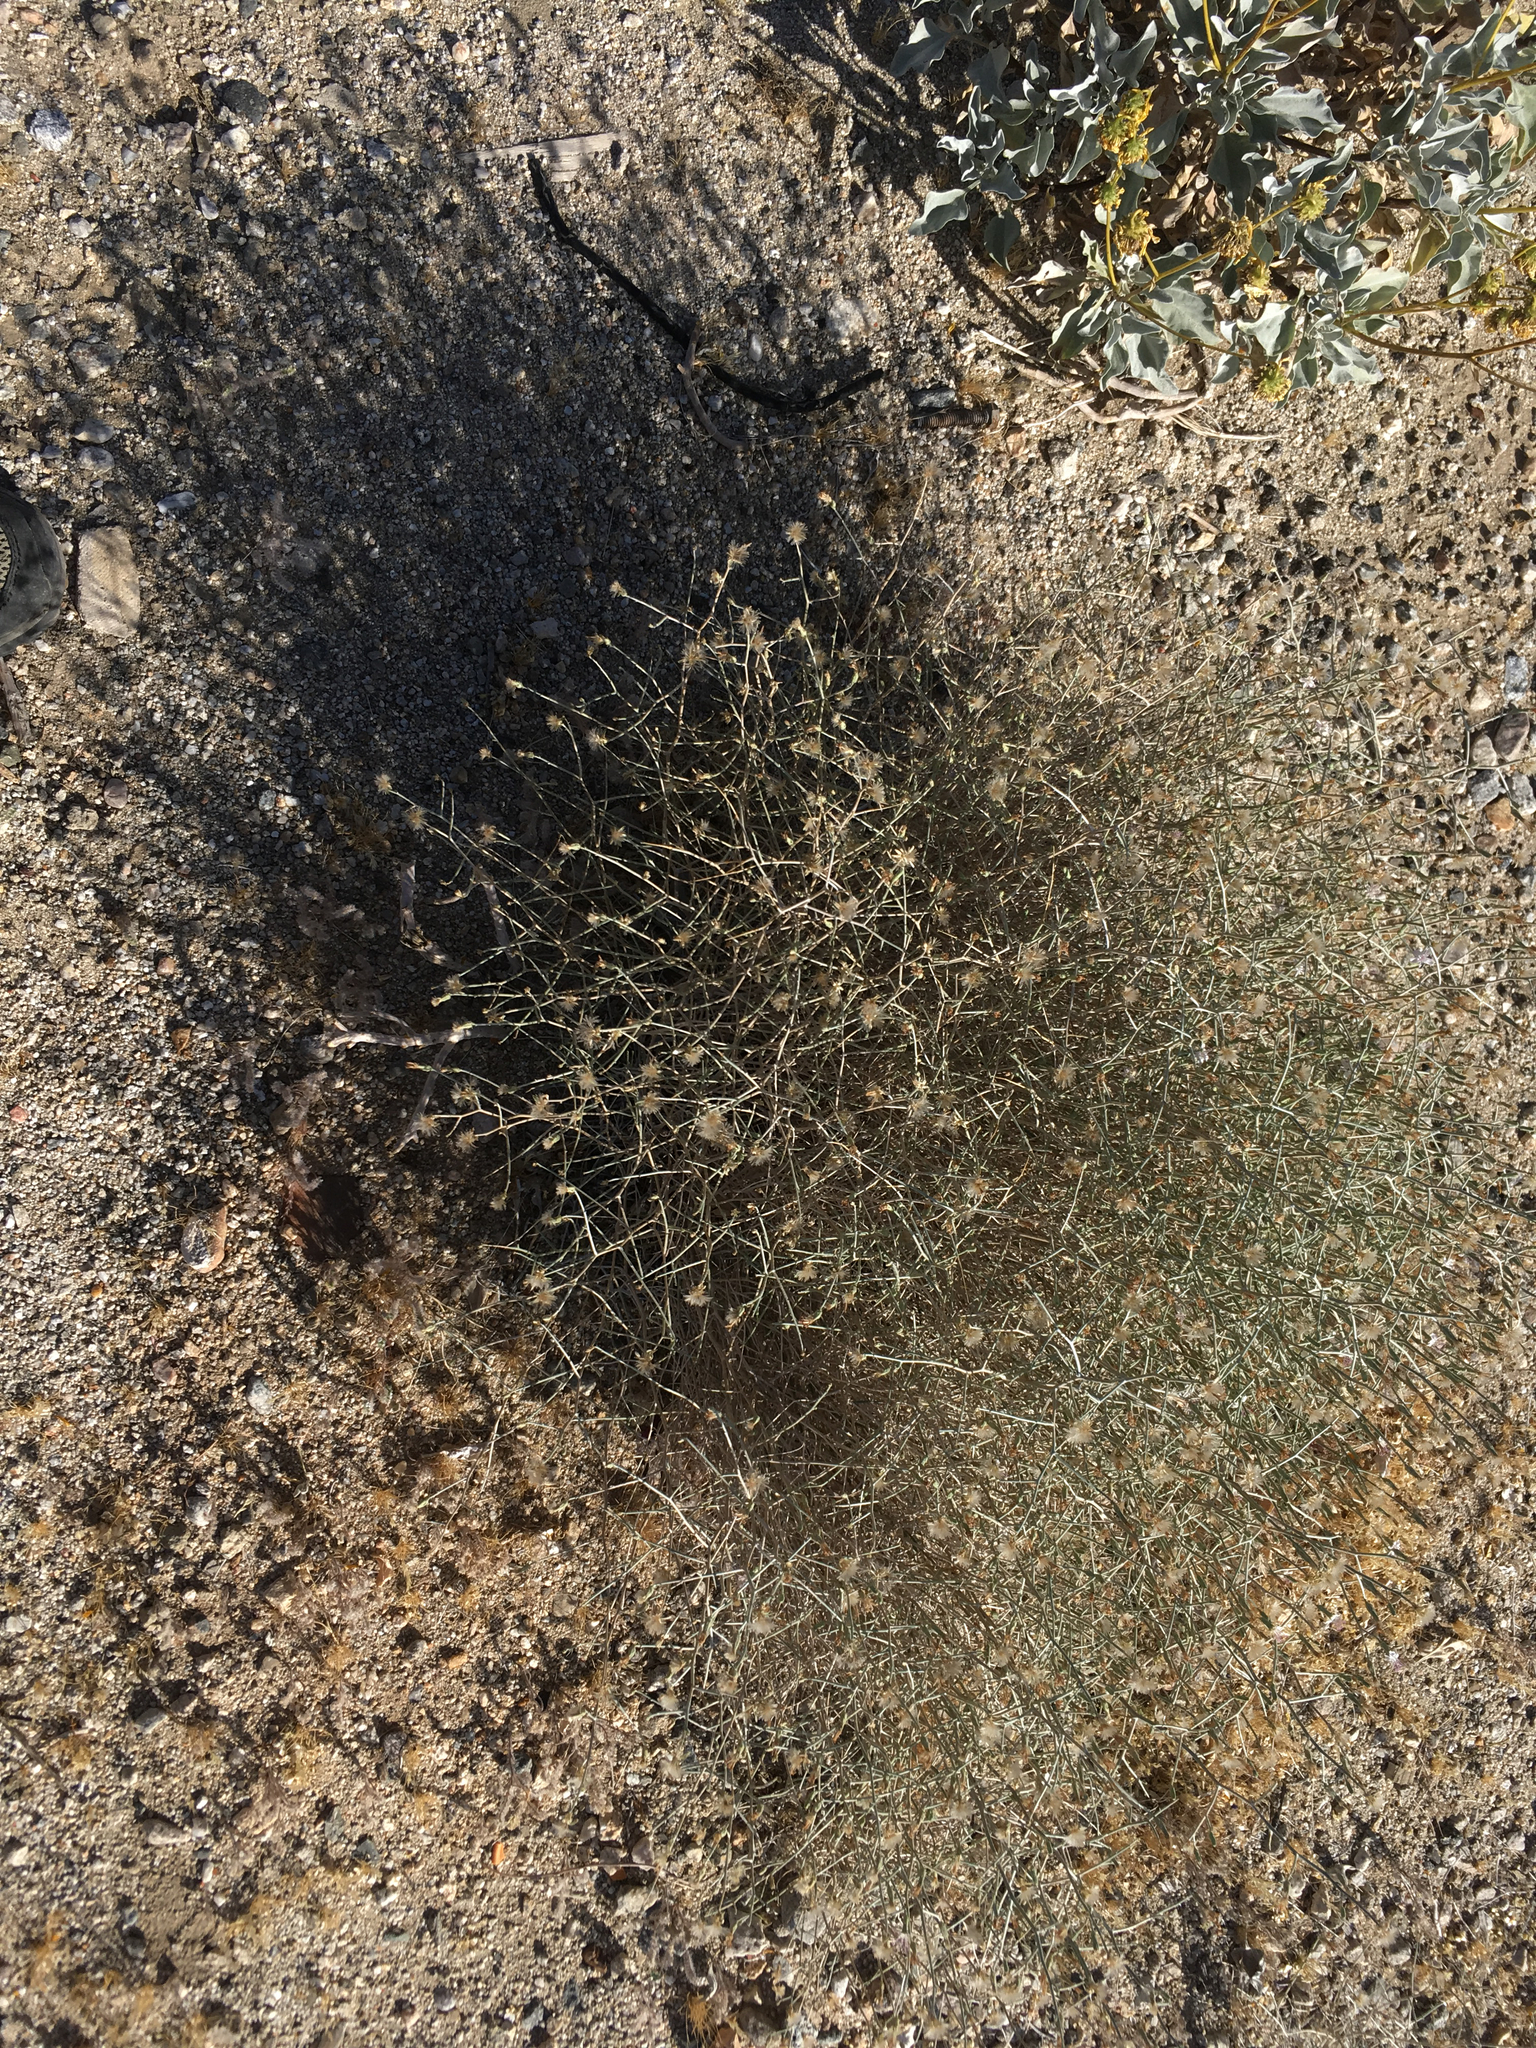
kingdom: Plantae
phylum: Tracheophyta
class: Magnoliopsida
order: Asterales
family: Asteraceae
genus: Stephanomeria
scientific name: Stephanomeria pauciflora
